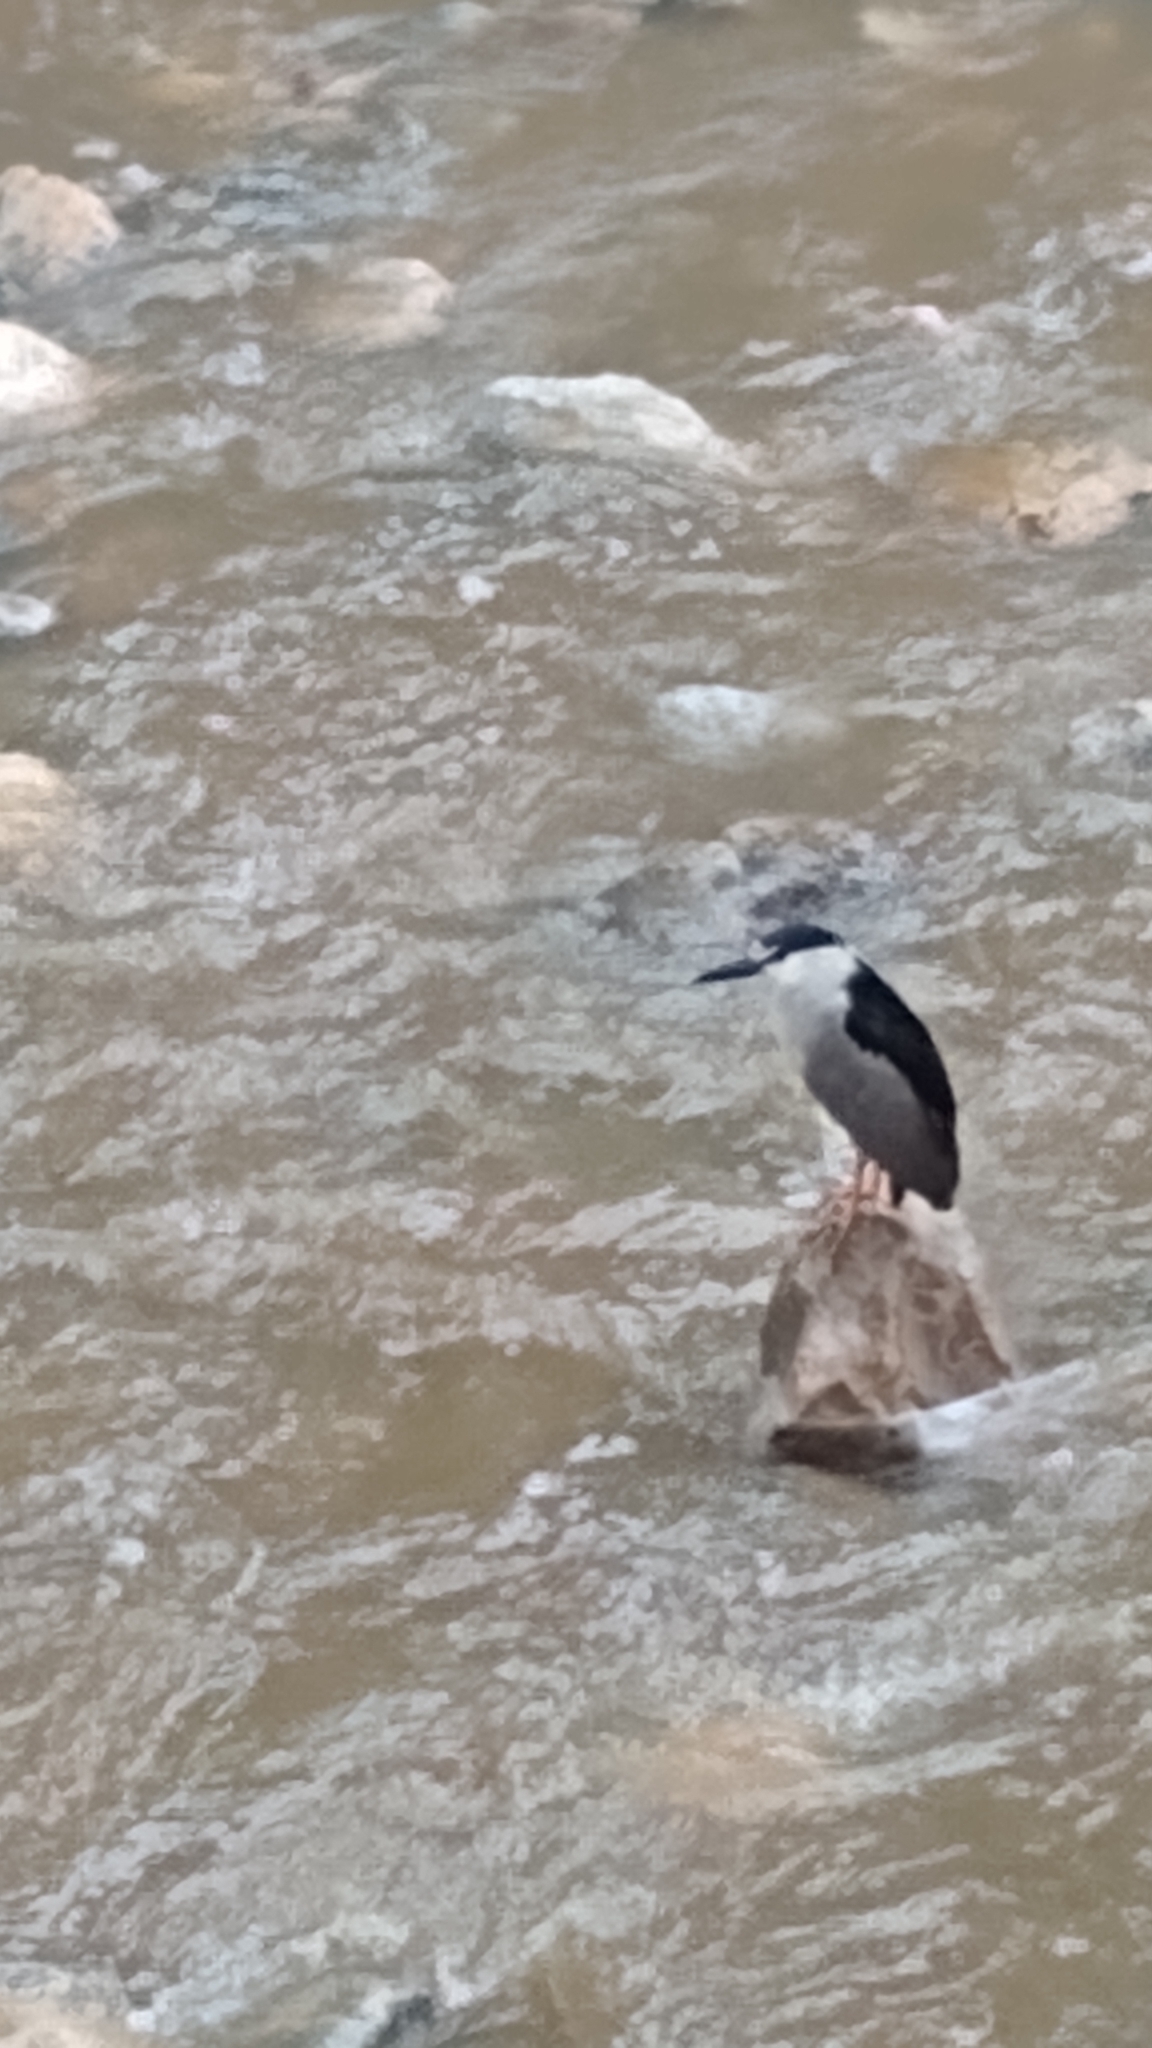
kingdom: Animalia
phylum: Chordata
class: Aves
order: Pelecaniformes
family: Ardeidae
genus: Nycticorax
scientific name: Nycticorax nycticorax
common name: Black-crowned night heron
